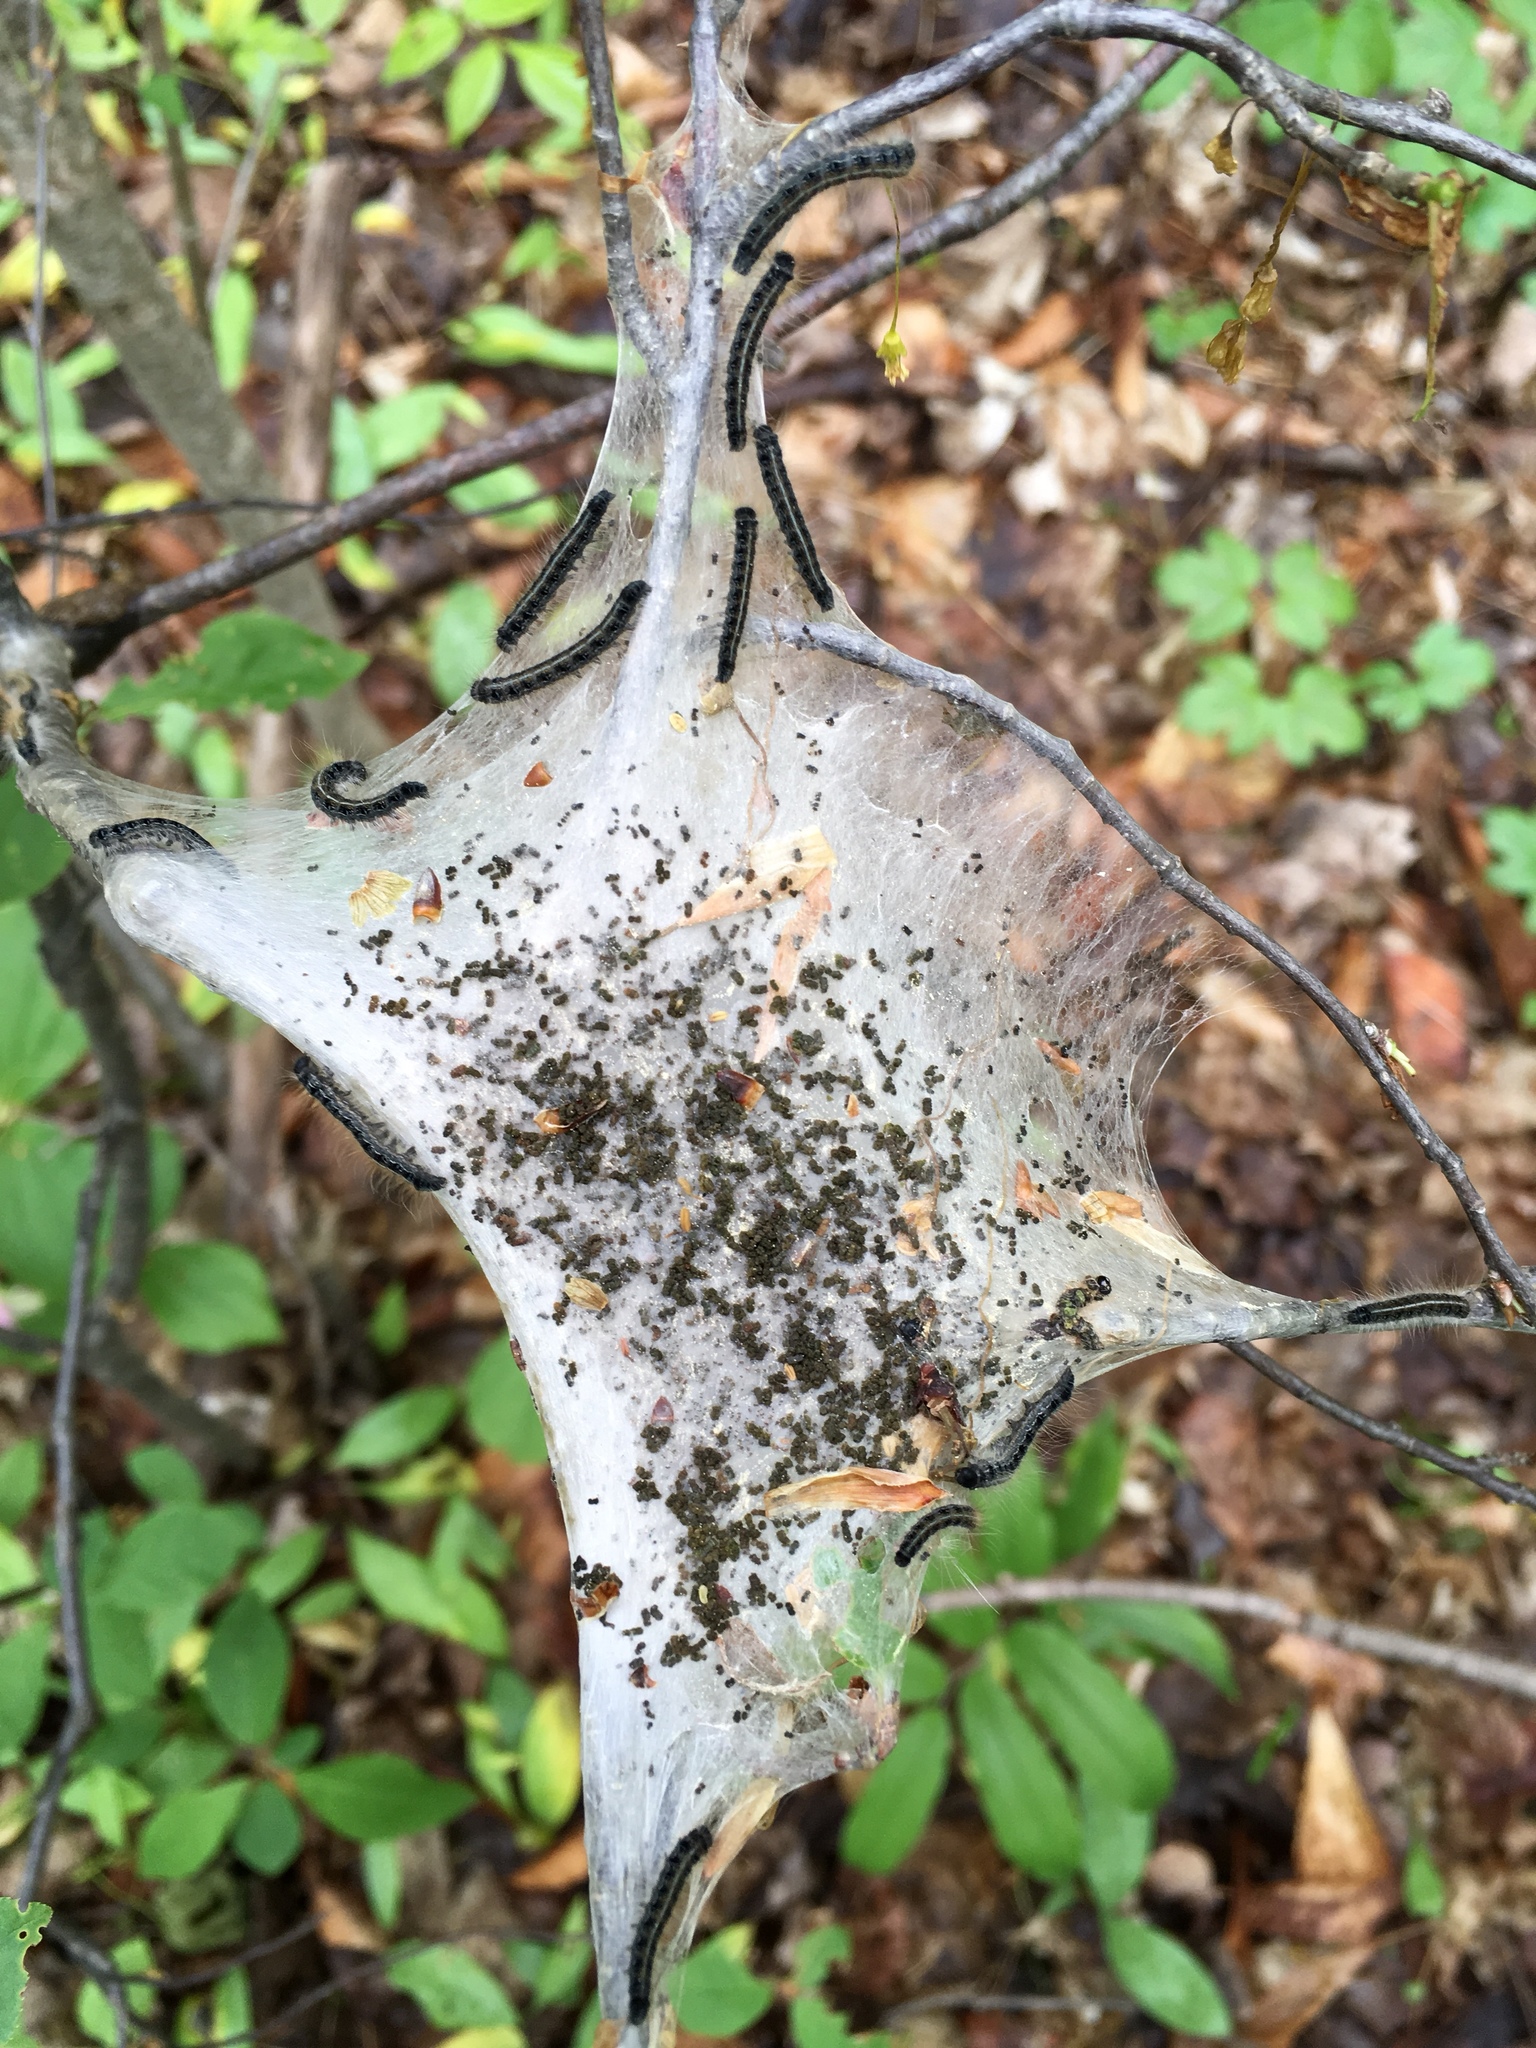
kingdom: Animalia
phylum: Arthropoda
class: Insecta
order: Lepidoptera
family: Lasiocampidae
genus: Malacosoma
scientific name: Malacosoma americana
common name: Eastern tent caterpillar moth
